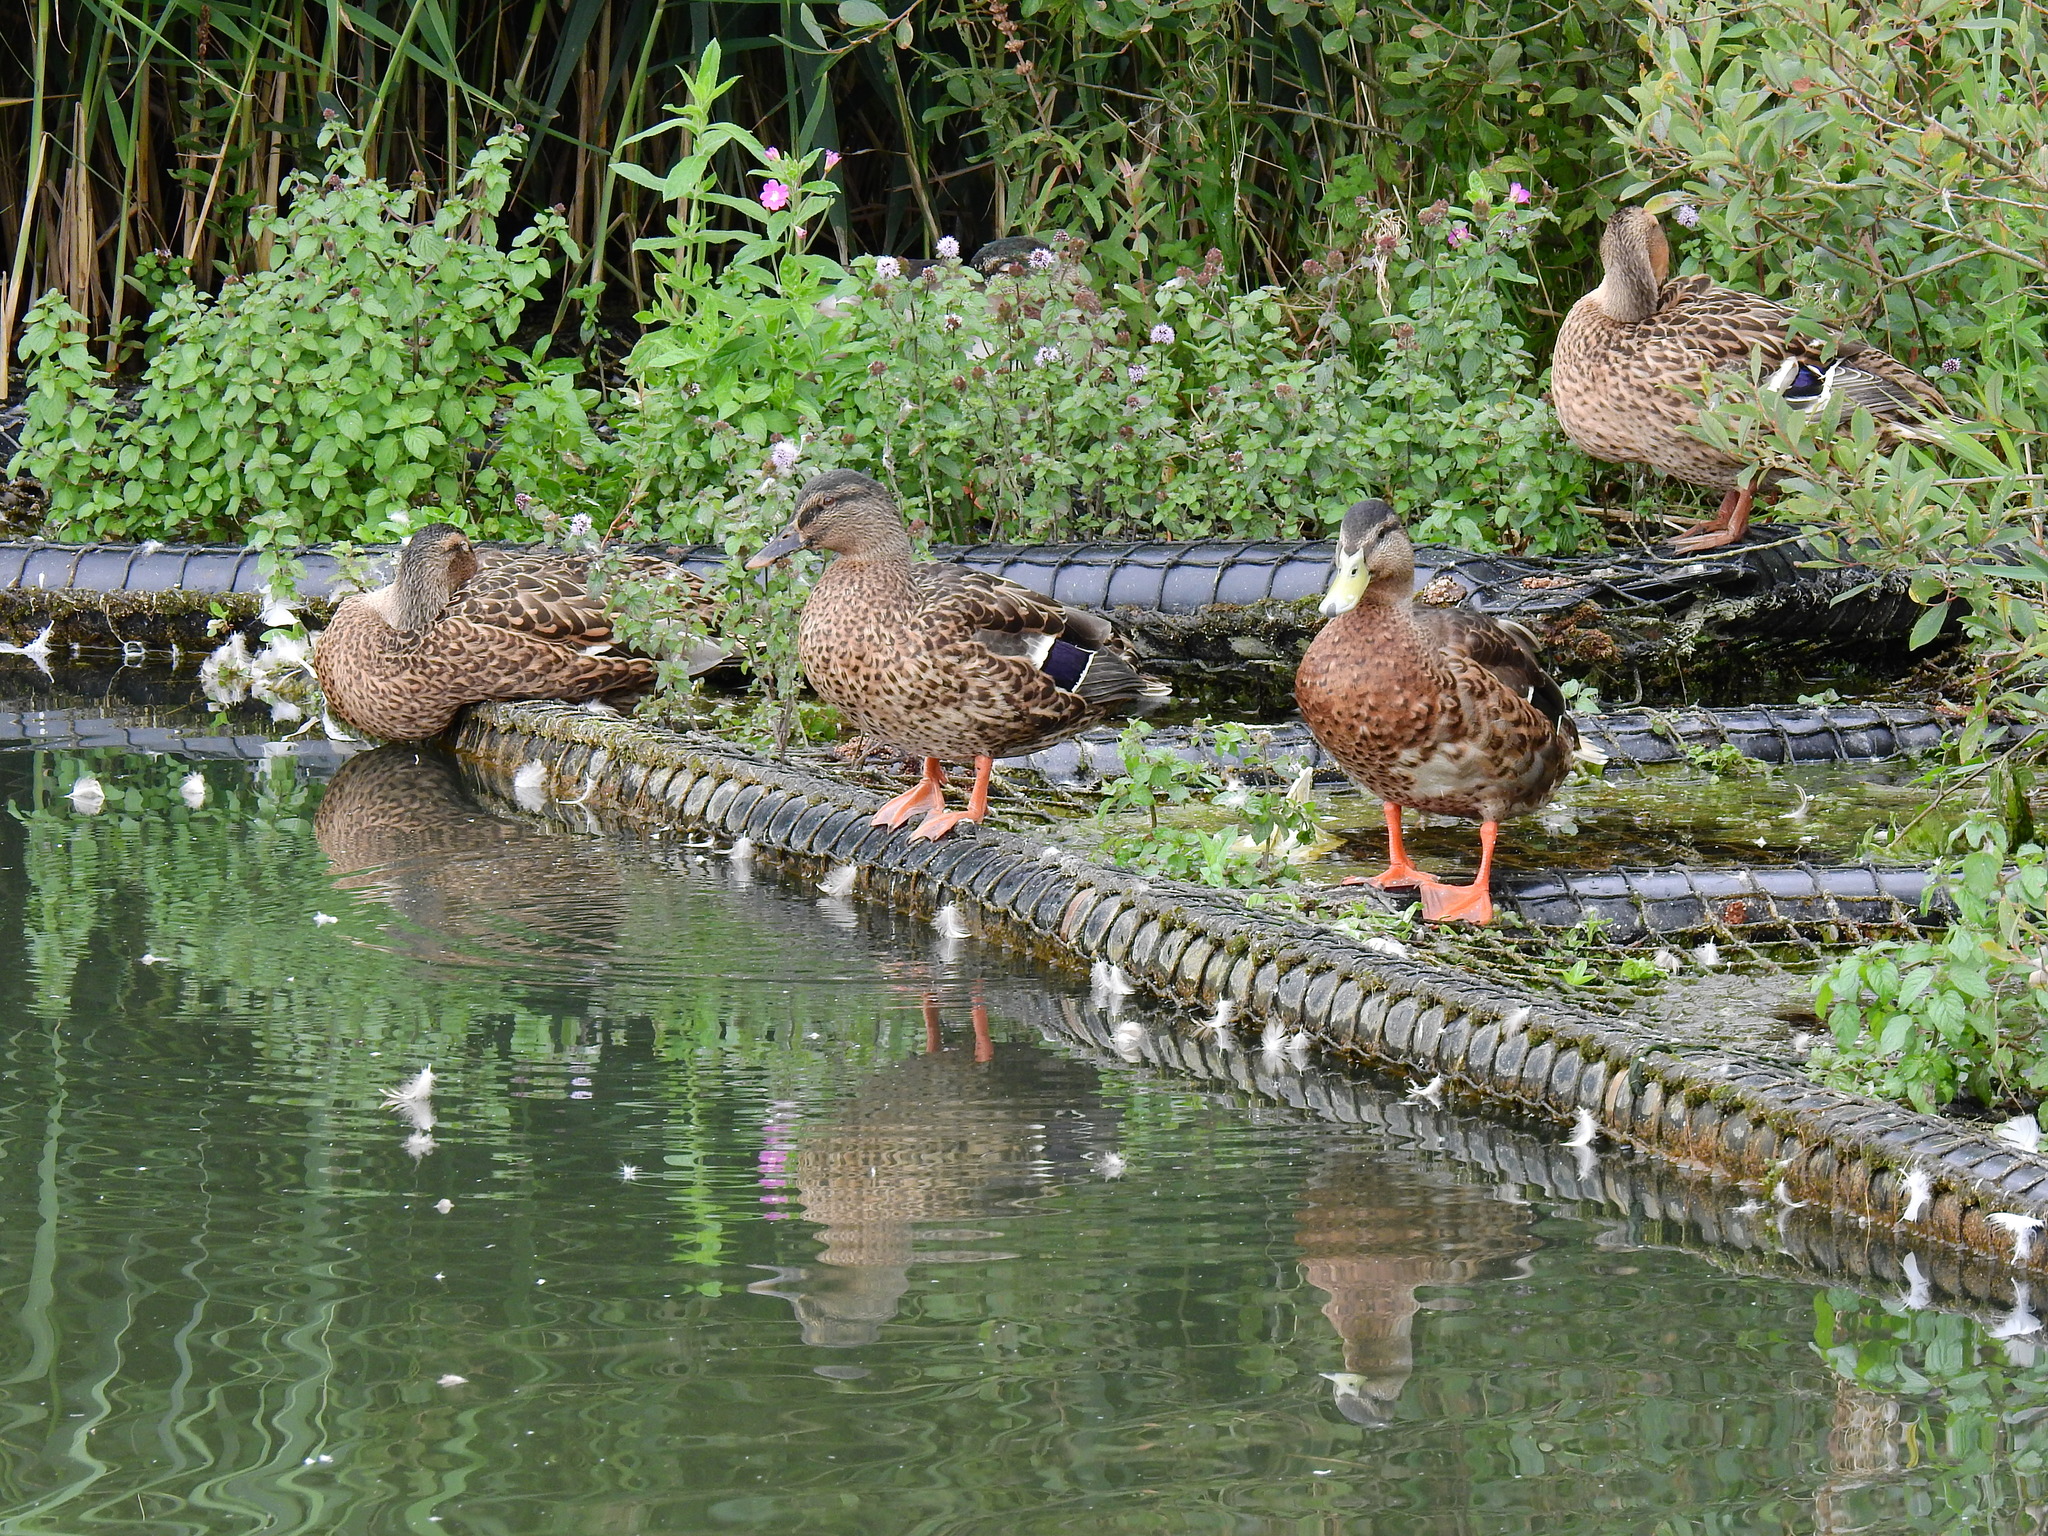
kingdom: Animalia
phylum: Chordata
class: Aves
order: Anseriformes
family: Anatidae
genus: Anas
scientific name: Anas platyrhynchos
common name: Mallard
